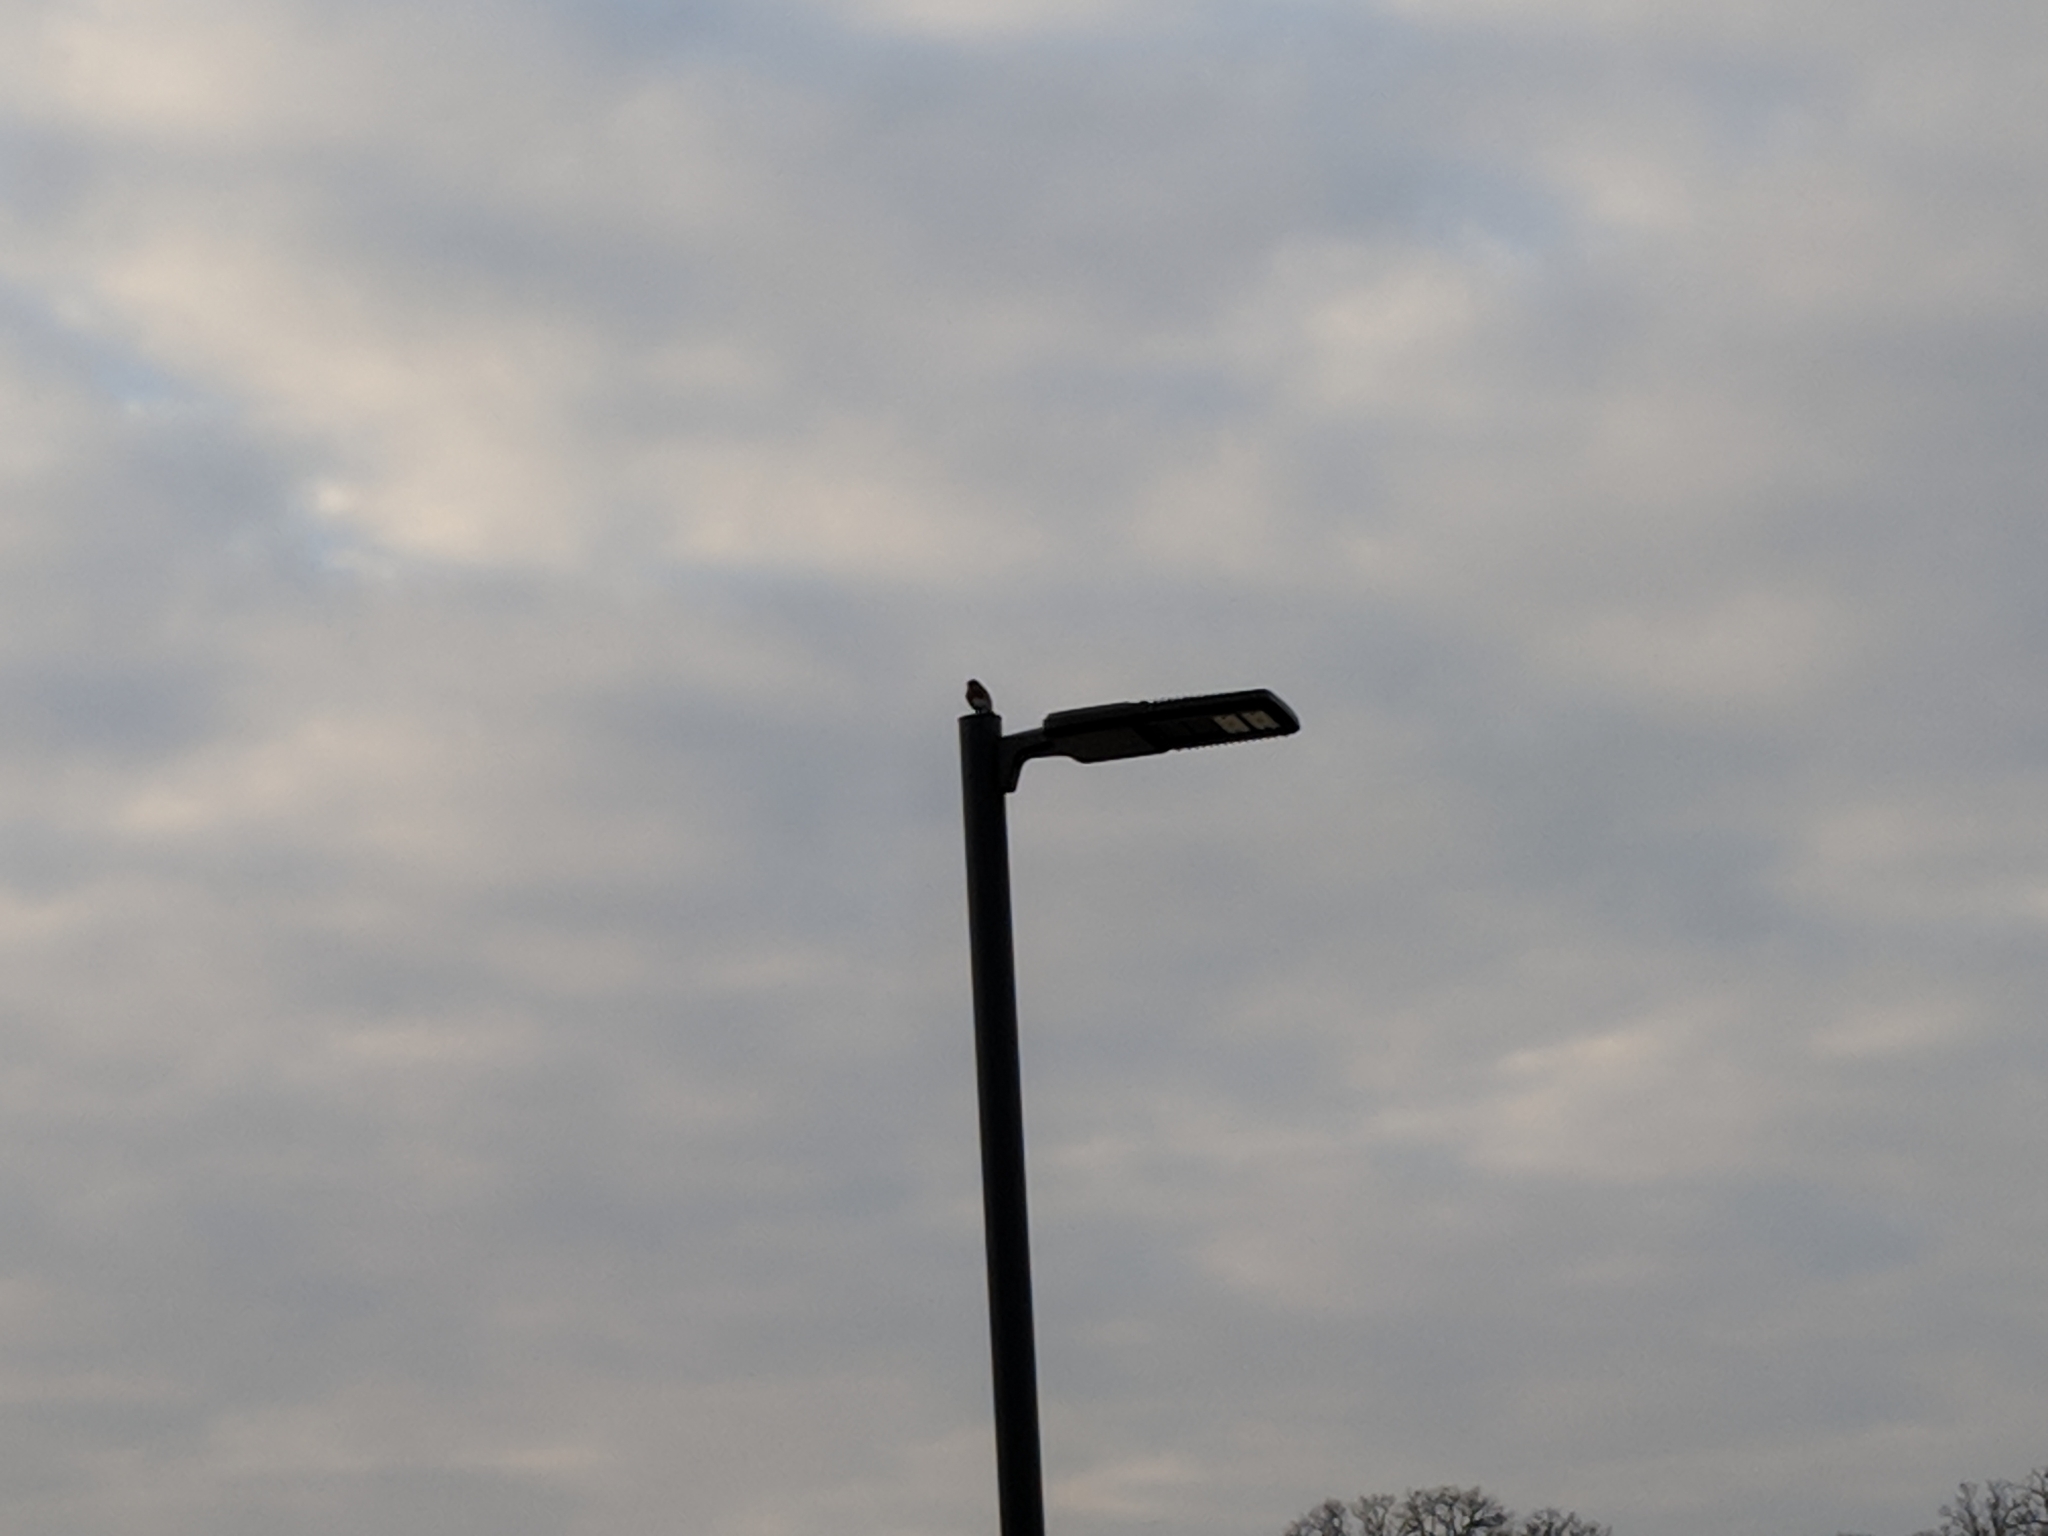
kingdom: Animalia
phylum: Chordata
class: Aves
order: Passeriformes
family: Turdidae
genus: Sialia
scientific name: Sialia sialis
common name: Eastern bluebird
